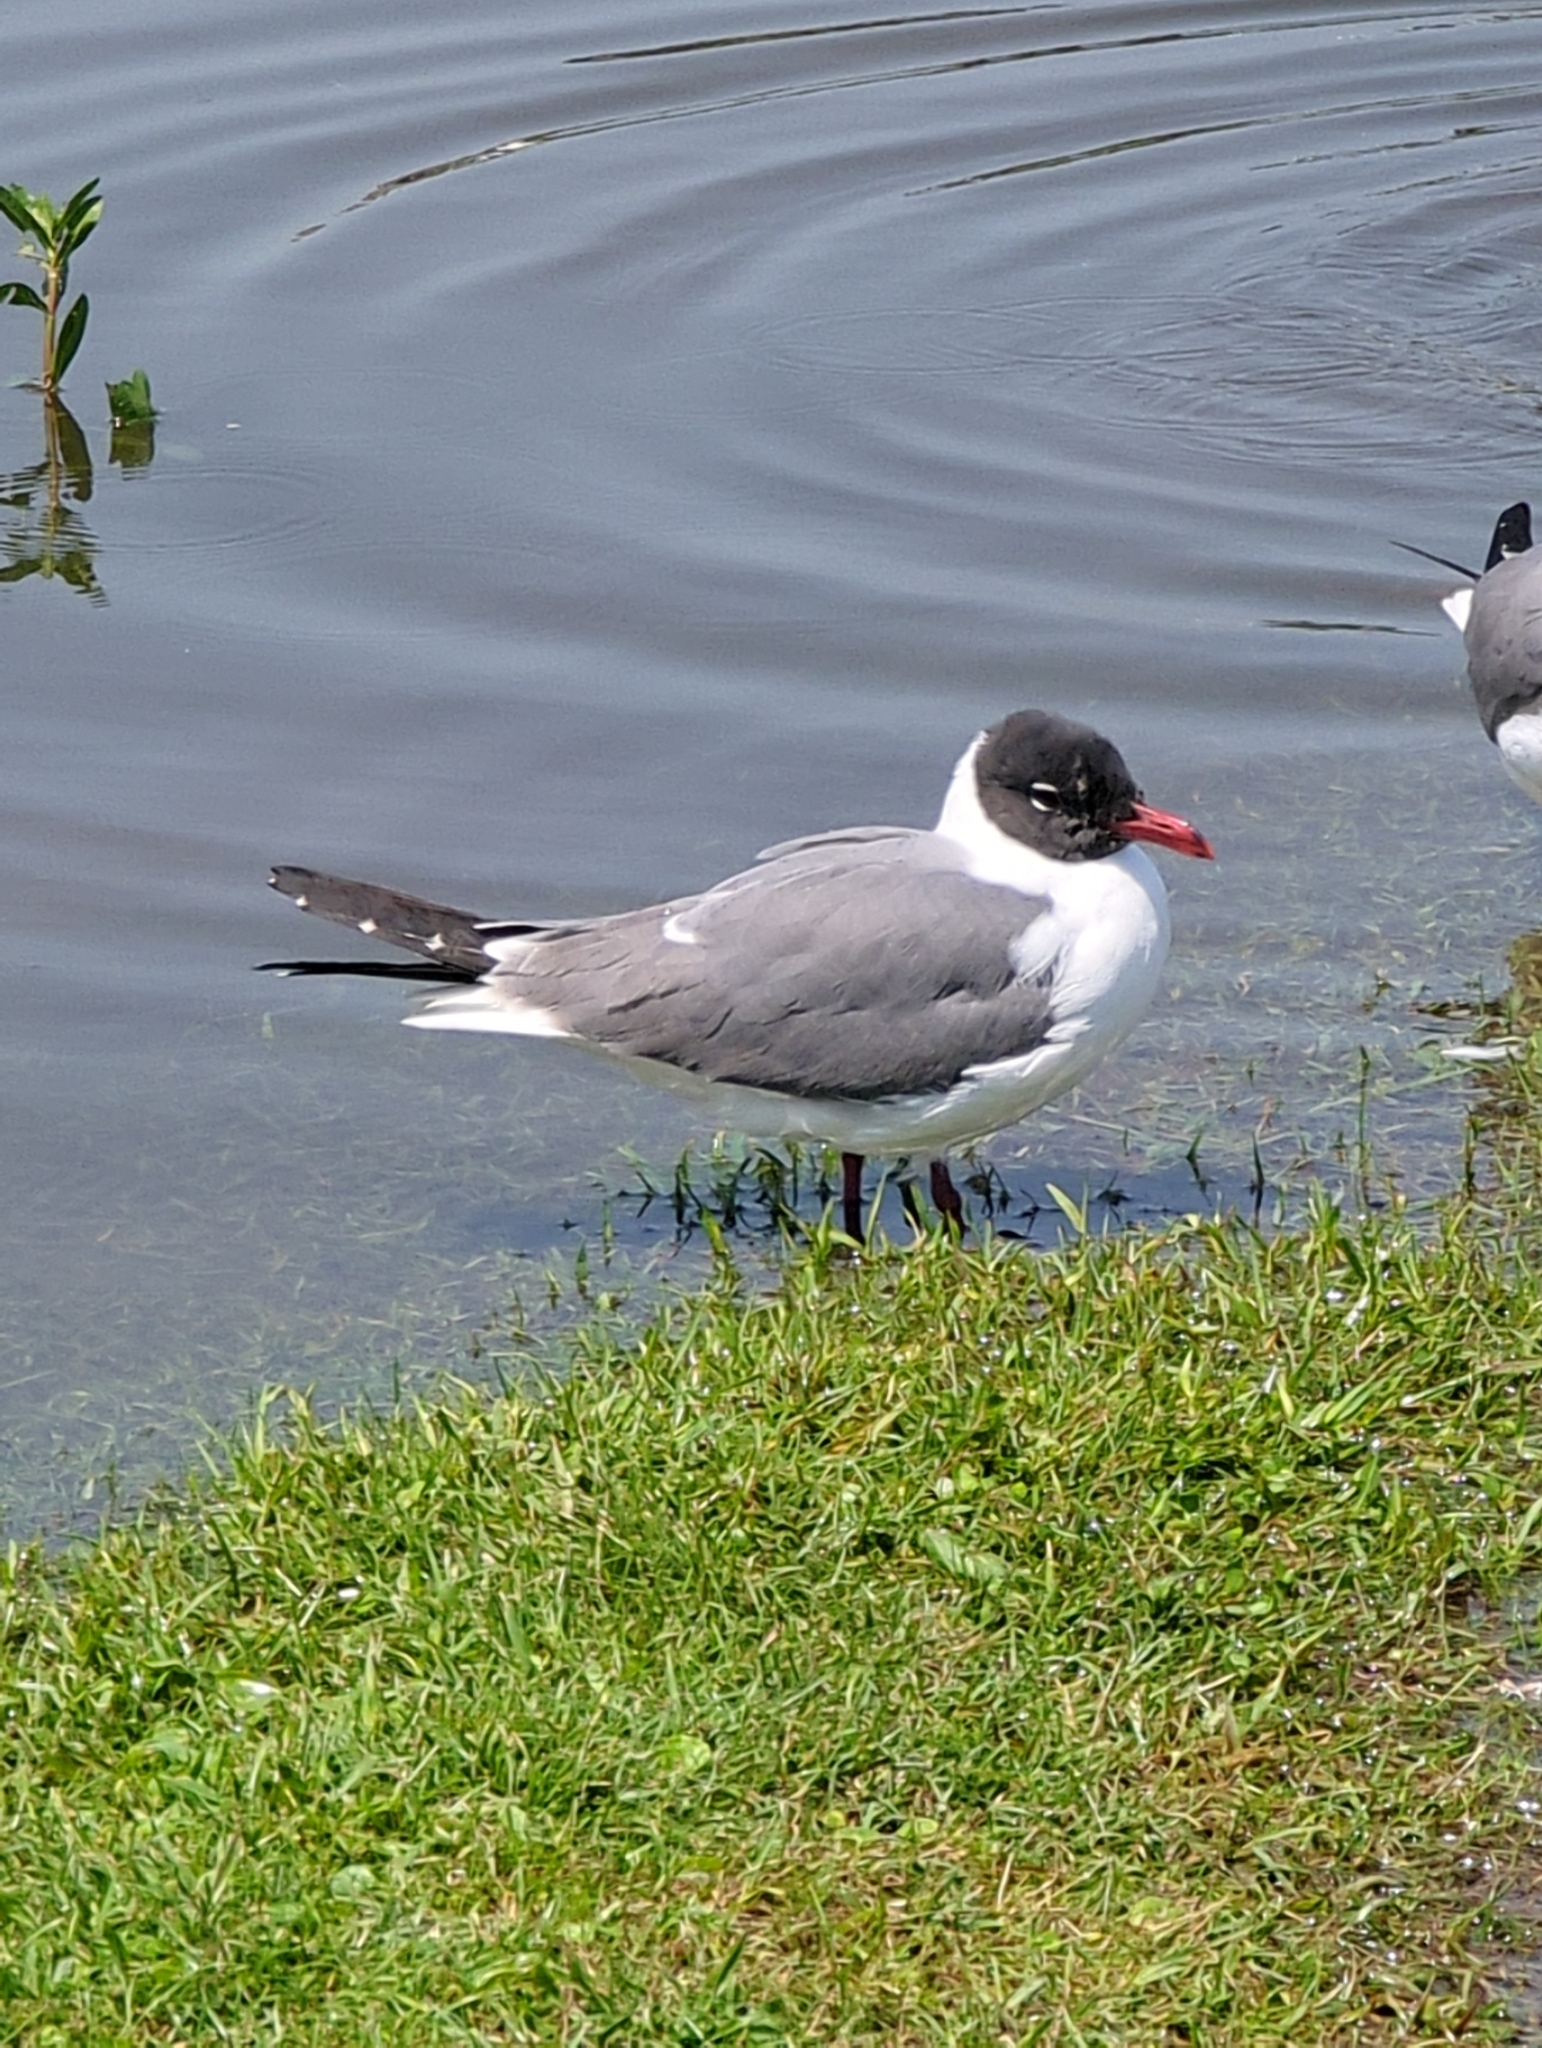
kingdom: Animalia
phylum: Chordata
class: Aves
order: Charadriiformes
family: Laridae
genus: Leucophaeus
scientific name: Leucophaeus atricilla
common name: Laughing gull
